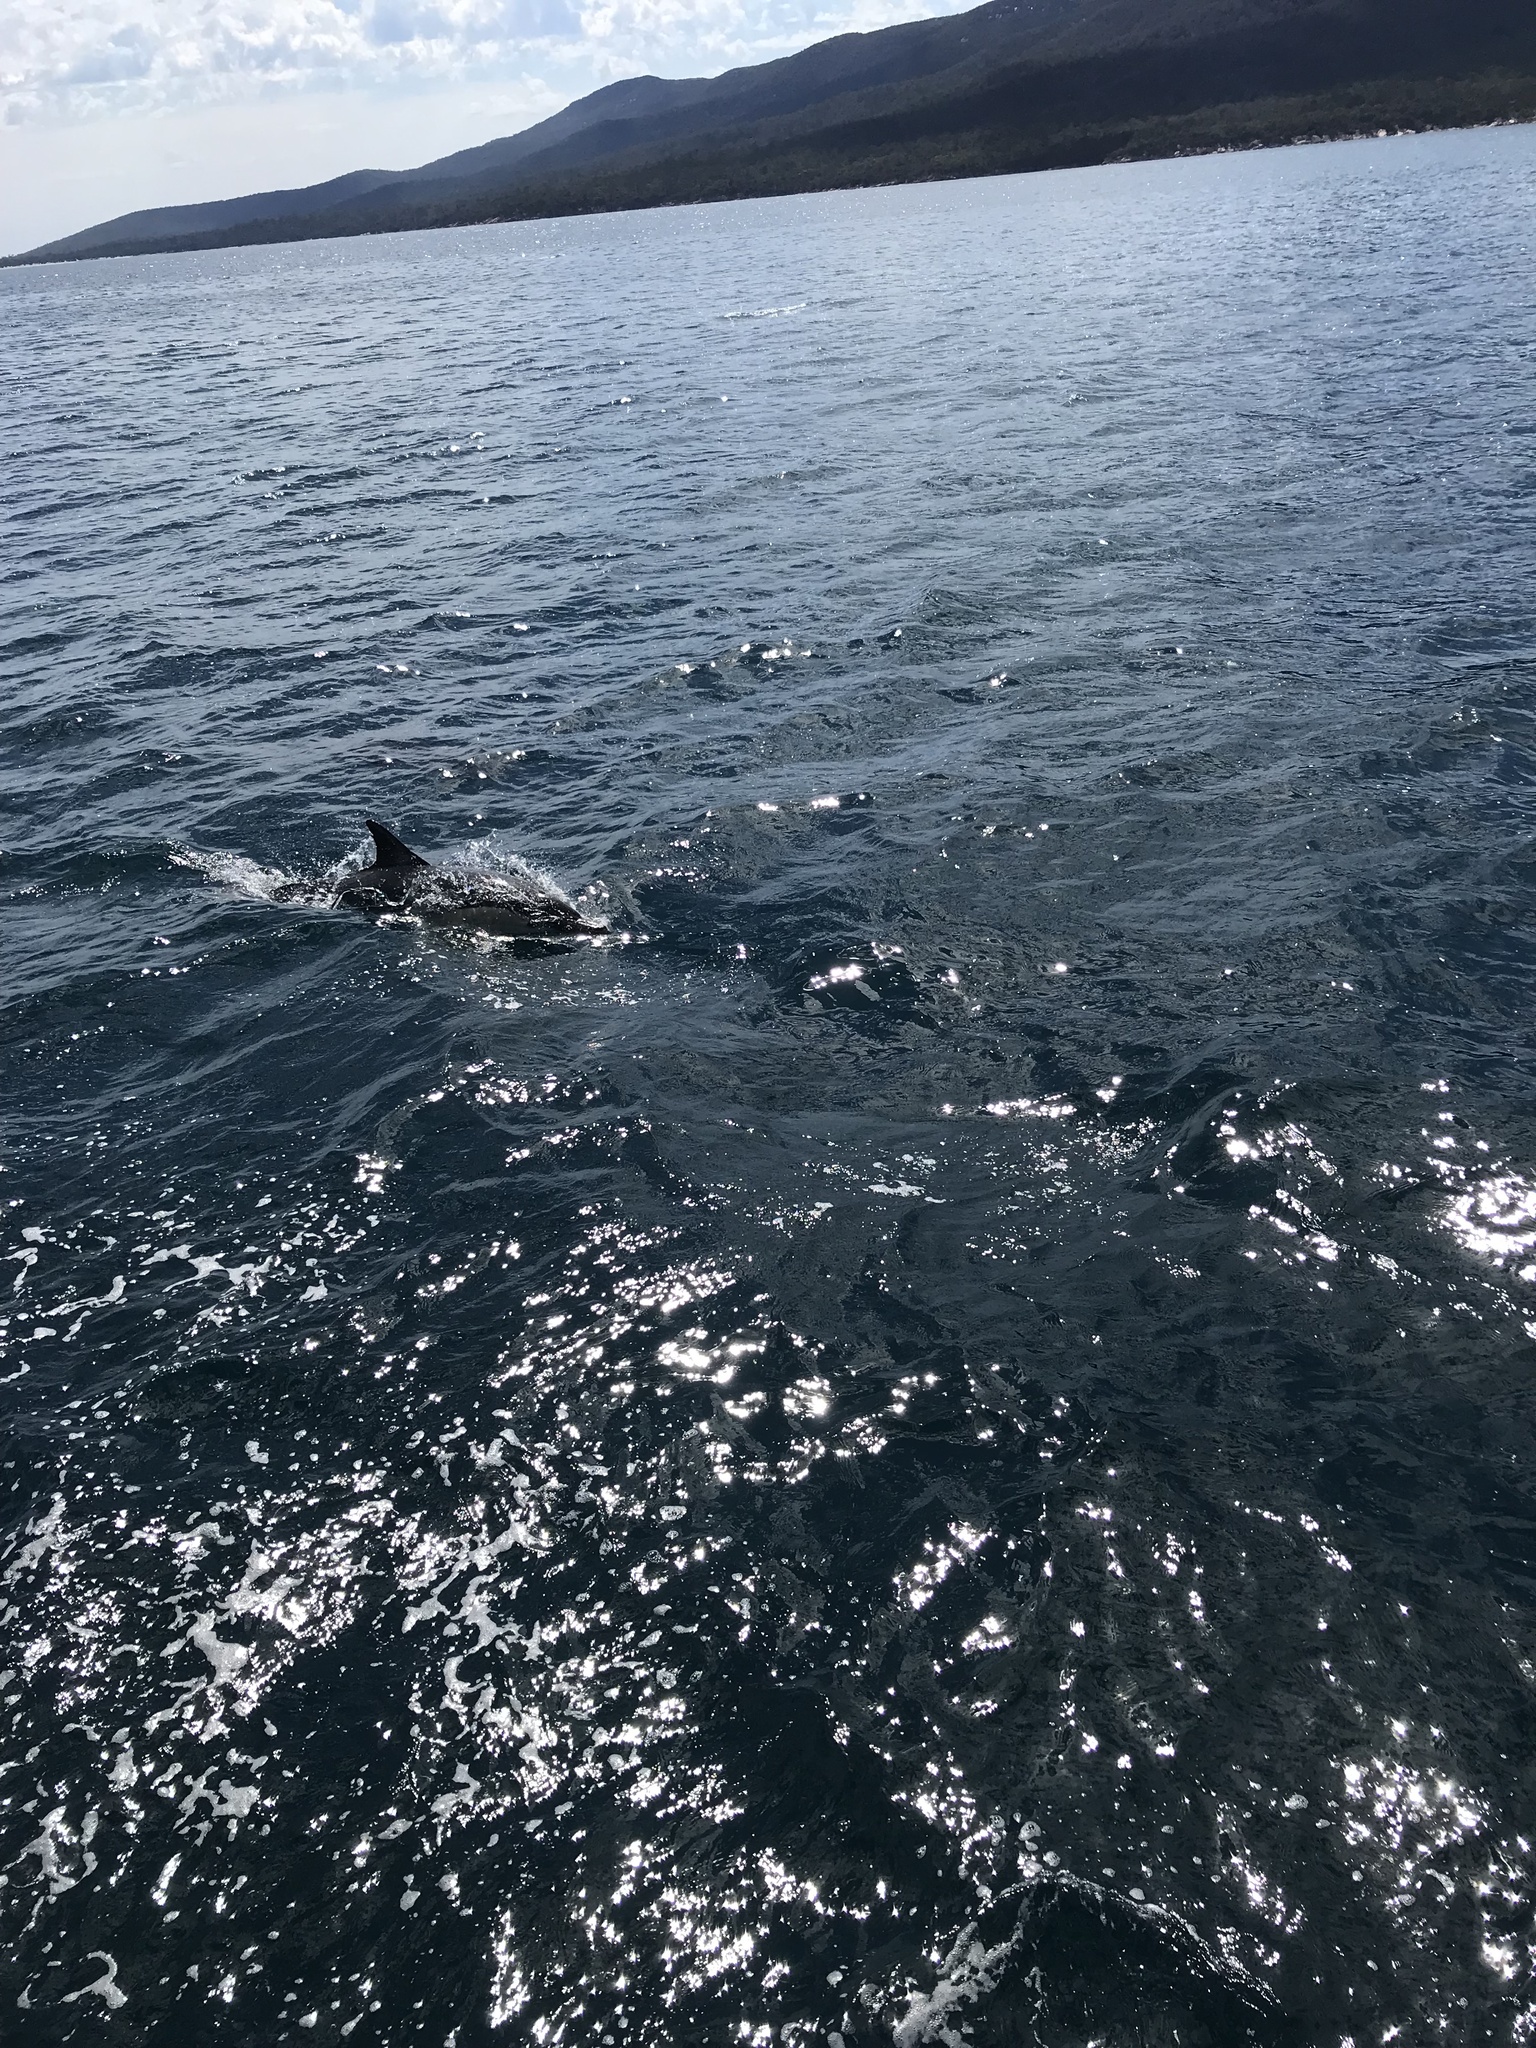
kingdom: Animalia
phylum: Chordata
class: Mammalia
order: Cetacea
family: Delphinidae
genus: Delphinus
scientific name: Delphinus delphis
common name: Common dolphin
